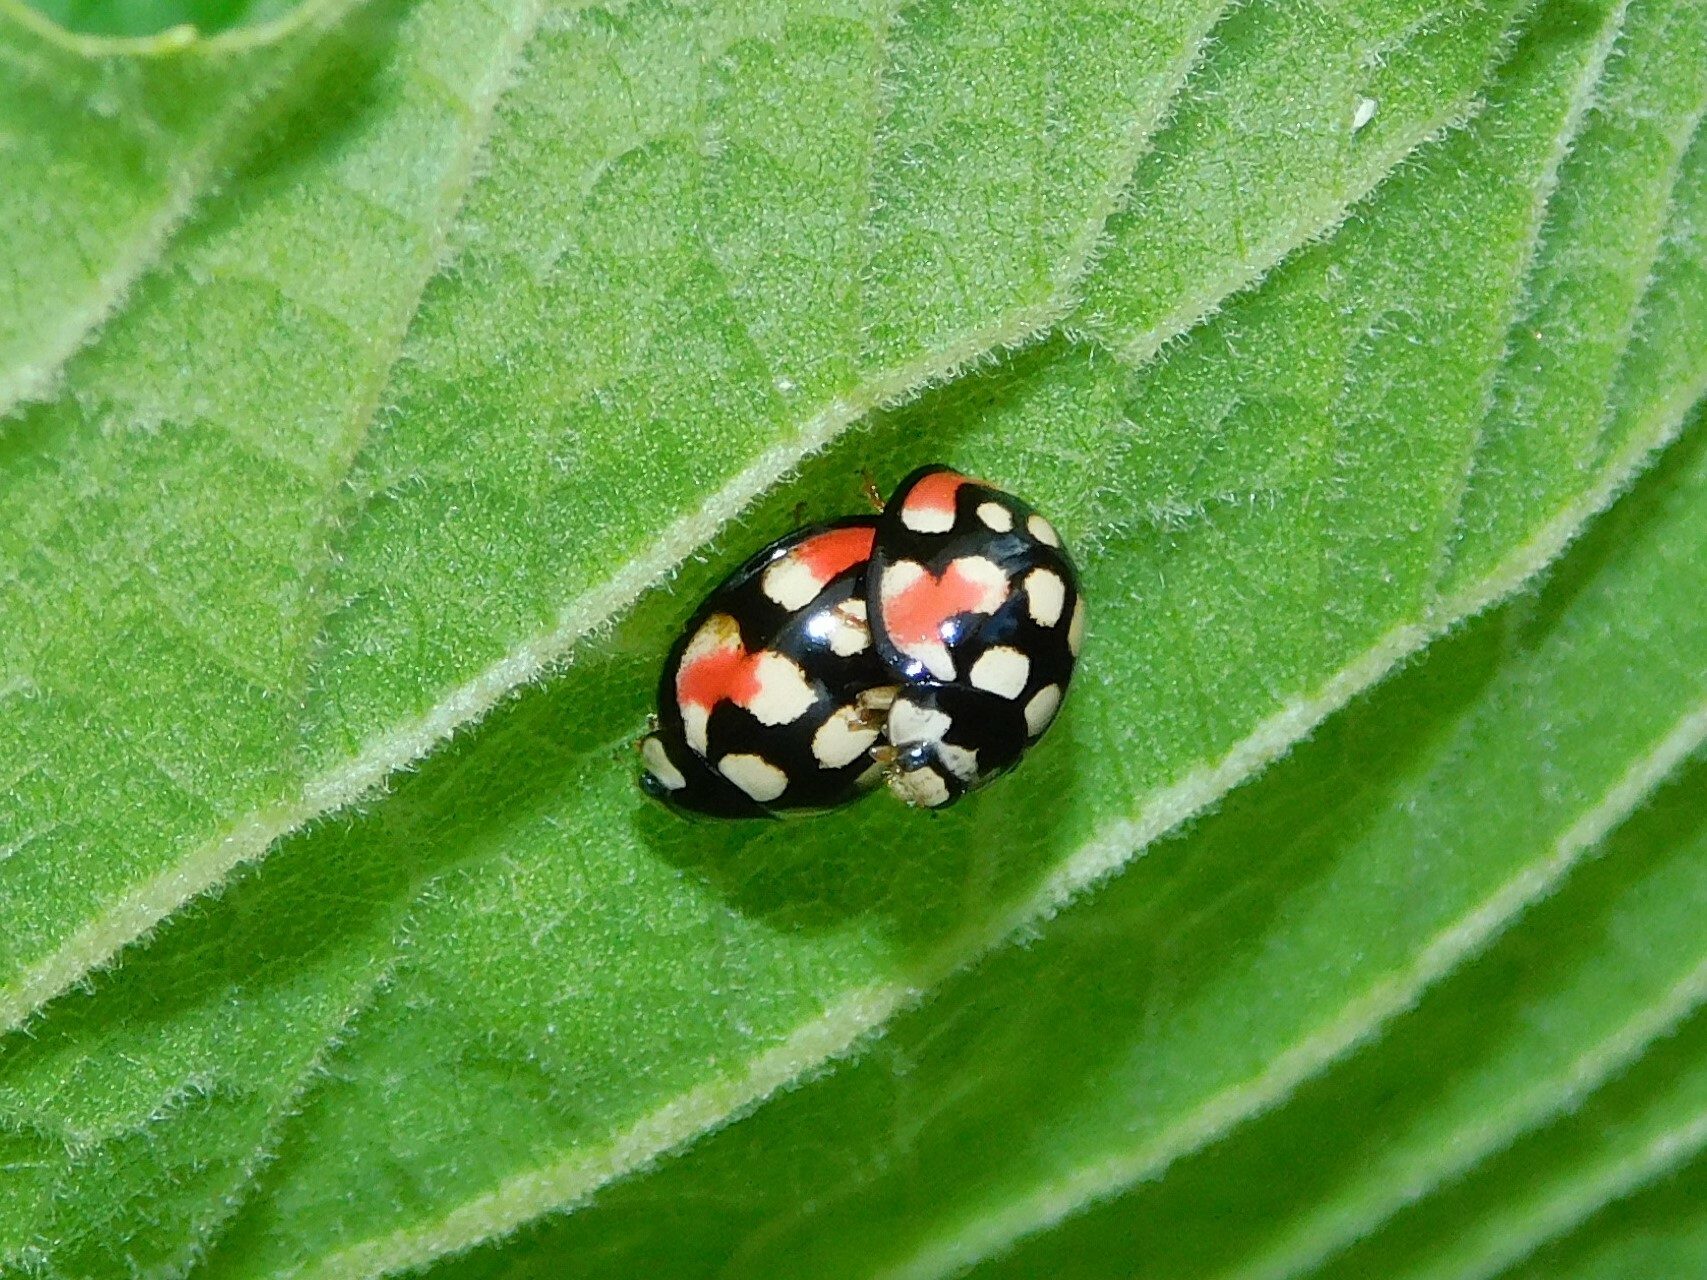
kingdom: Animalia
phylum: Arthropoda
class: Insecta
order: Coleoptera
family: Coccinellidae
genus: Cheilomenes
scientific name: Cheilomenes sulphurea
